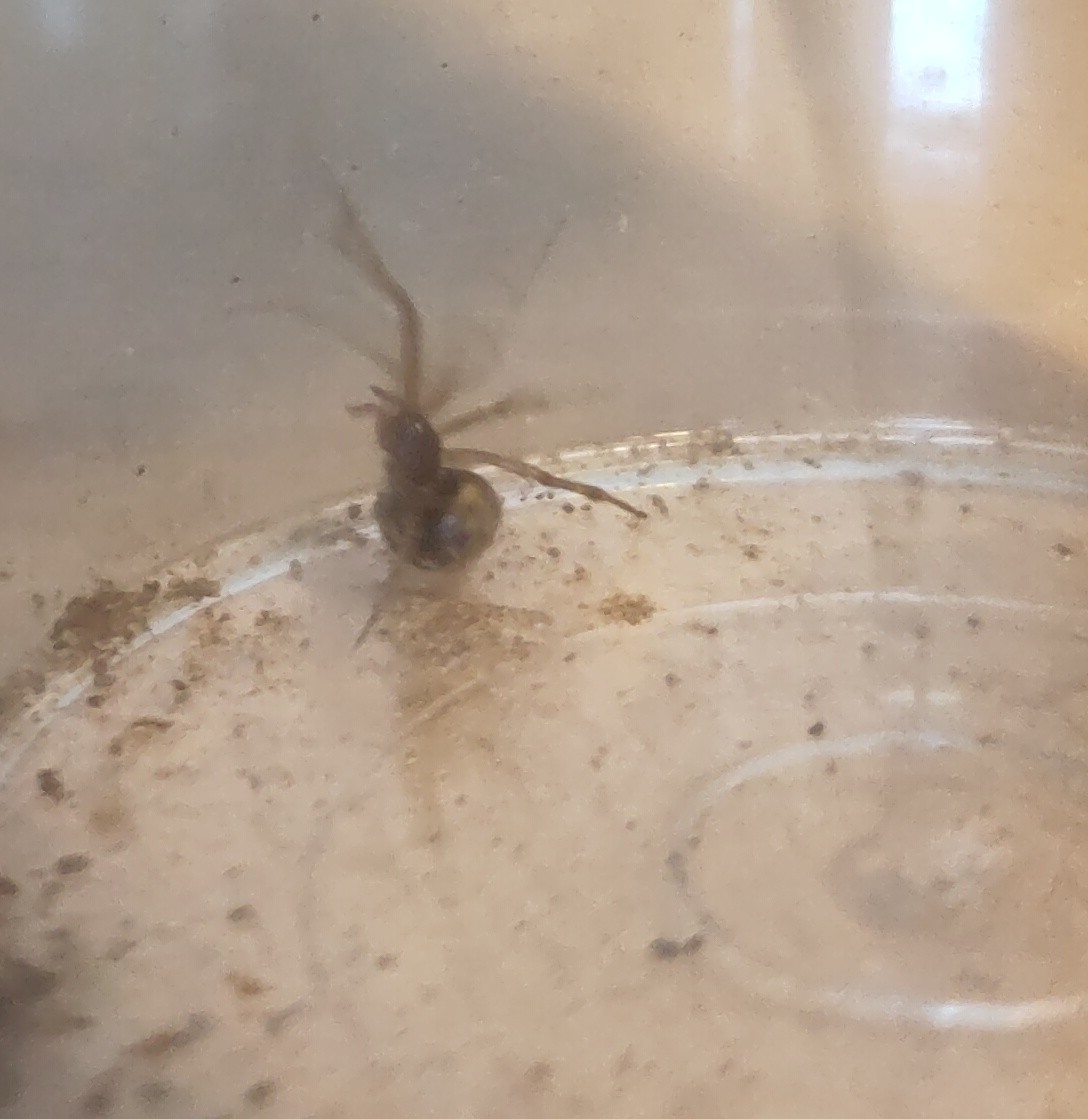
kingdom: Animalia
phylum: Arthropoda
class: Arachnida
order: Araneae
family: Theridiidae
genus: Steatoda
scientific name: Steatoda triangulosa
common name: Triangulate bud spider
